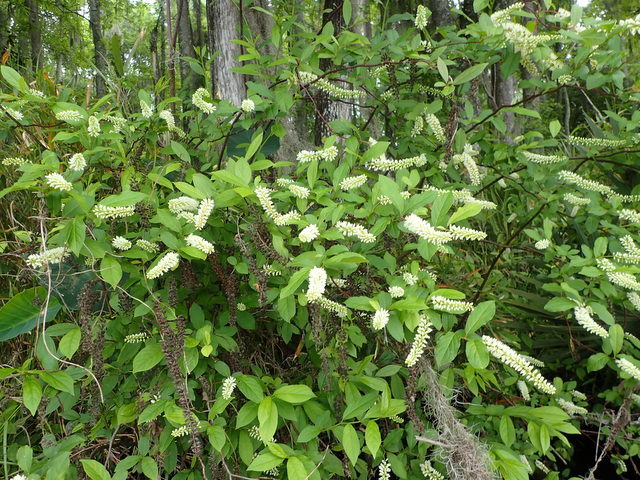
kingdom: Plantae
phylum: Tracheophyta
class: Magnoliopsida
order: Saxifragales
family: Iteaceae
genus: Itea
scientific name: Itea virginica
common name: Sweetspire
